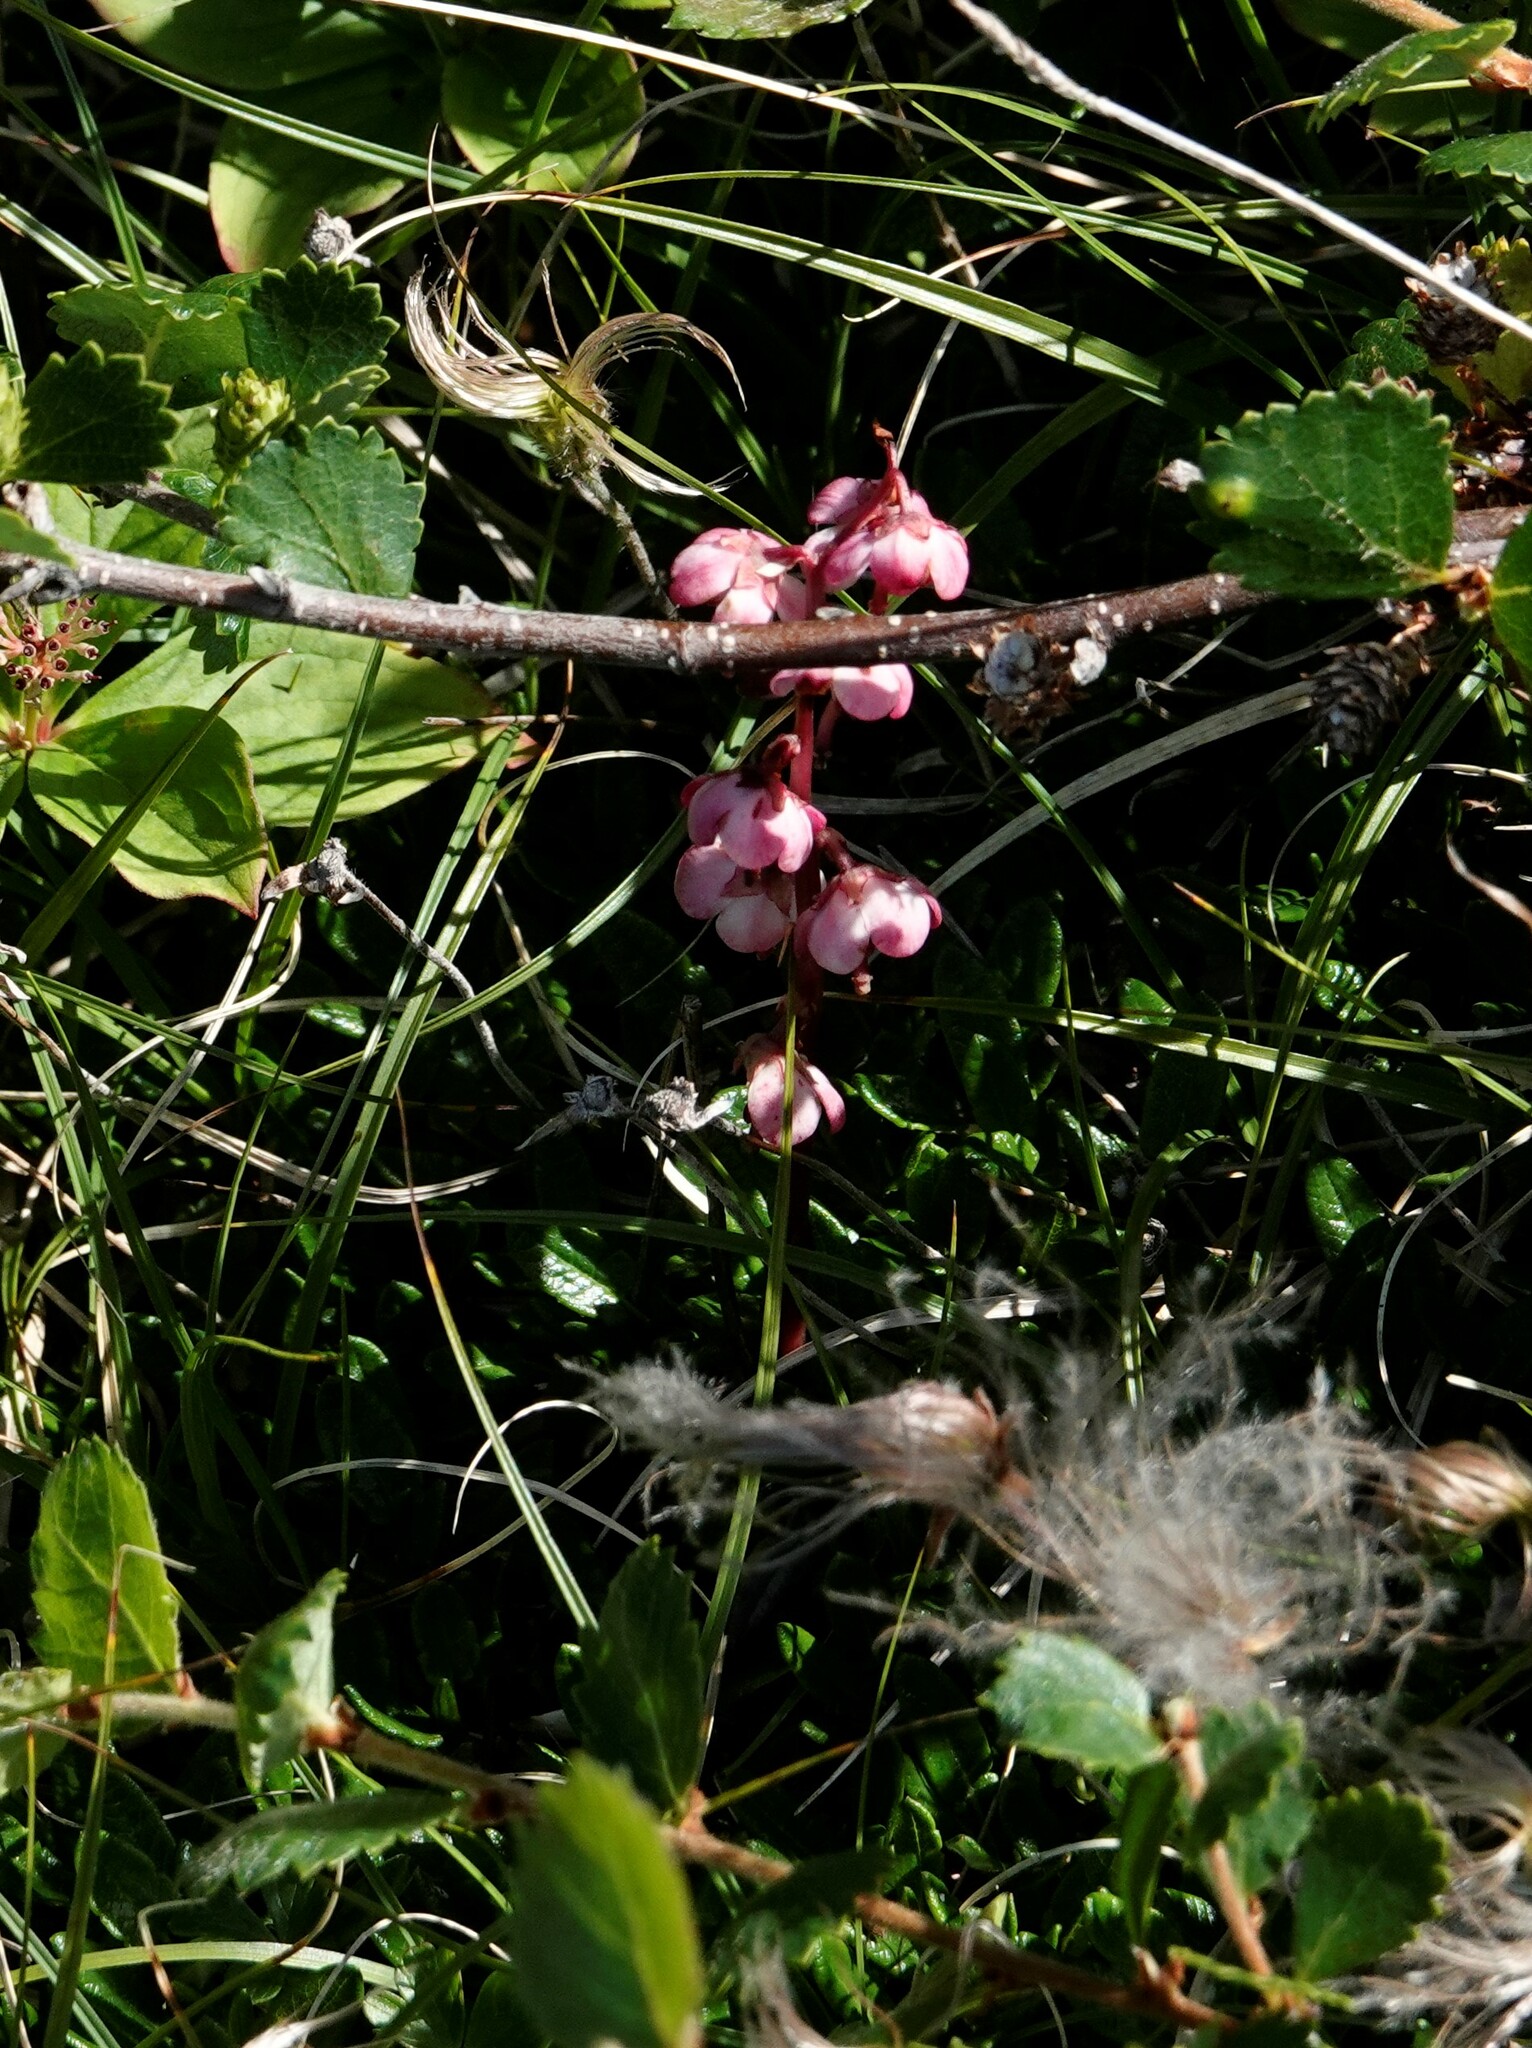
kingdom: Plantae
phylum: Tracheophyta
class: Magnoliopsida
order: Ericales
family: Ericaceae
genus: Pyrola
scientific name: Pyrola asarifolia
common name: Bog wintergreen
